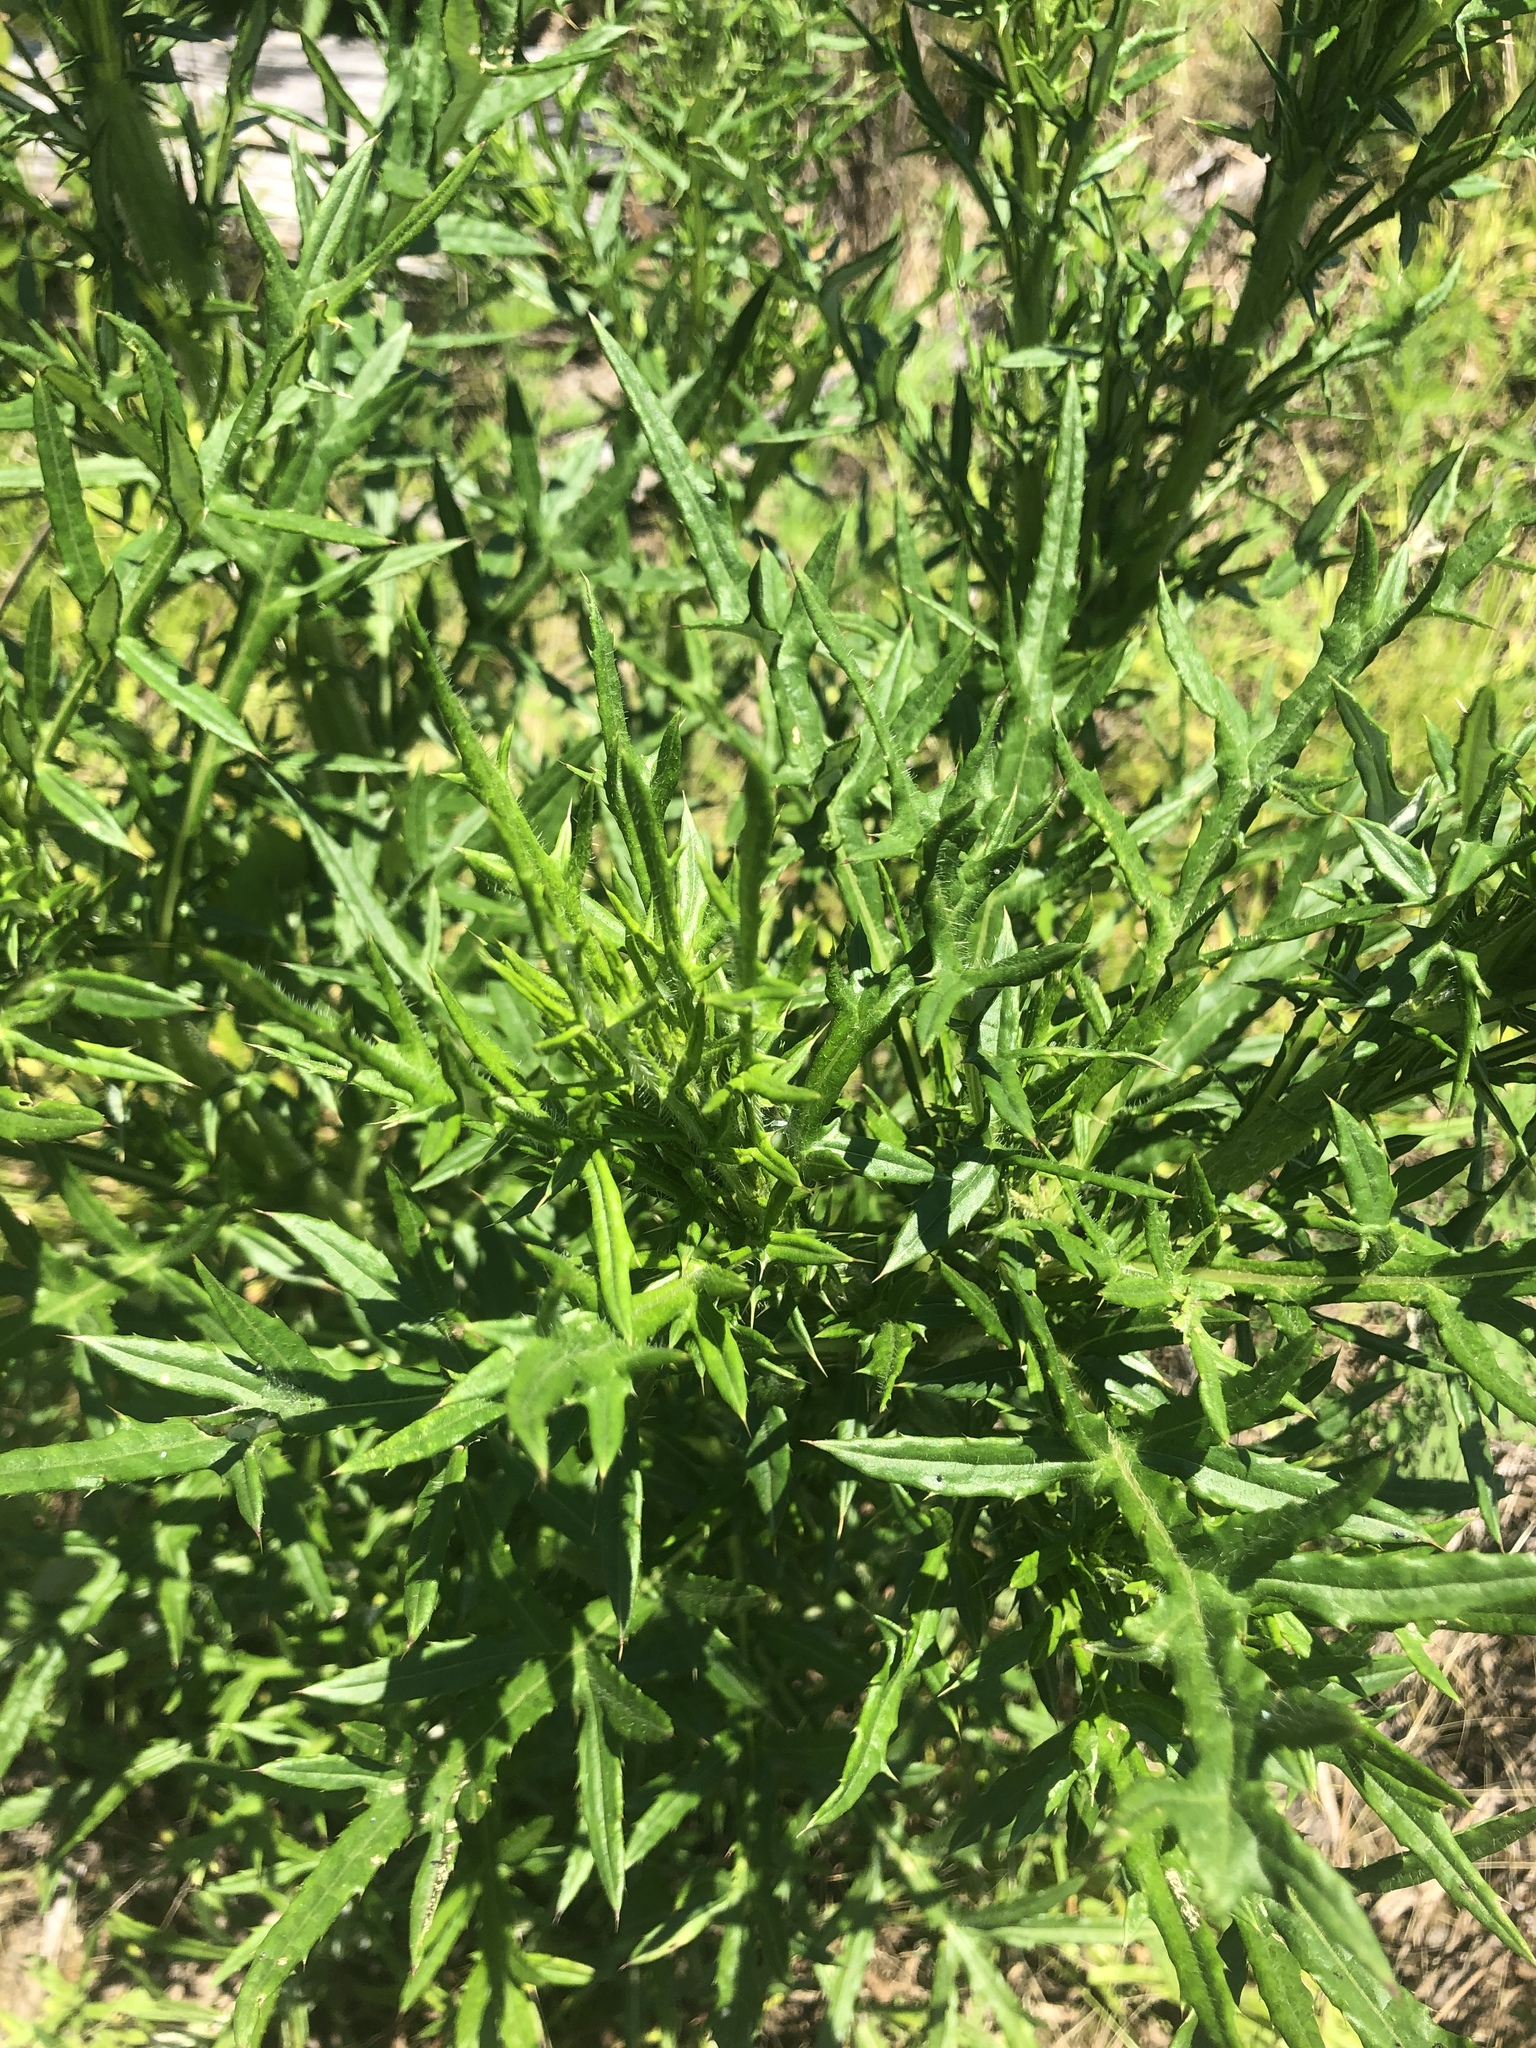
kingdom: Plantae
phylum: Tracheophyta
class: Magnoliopsida
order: Asterales
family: Asteraceae
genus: Cirsium
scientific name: Cirsium discolor
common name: Field thistle
